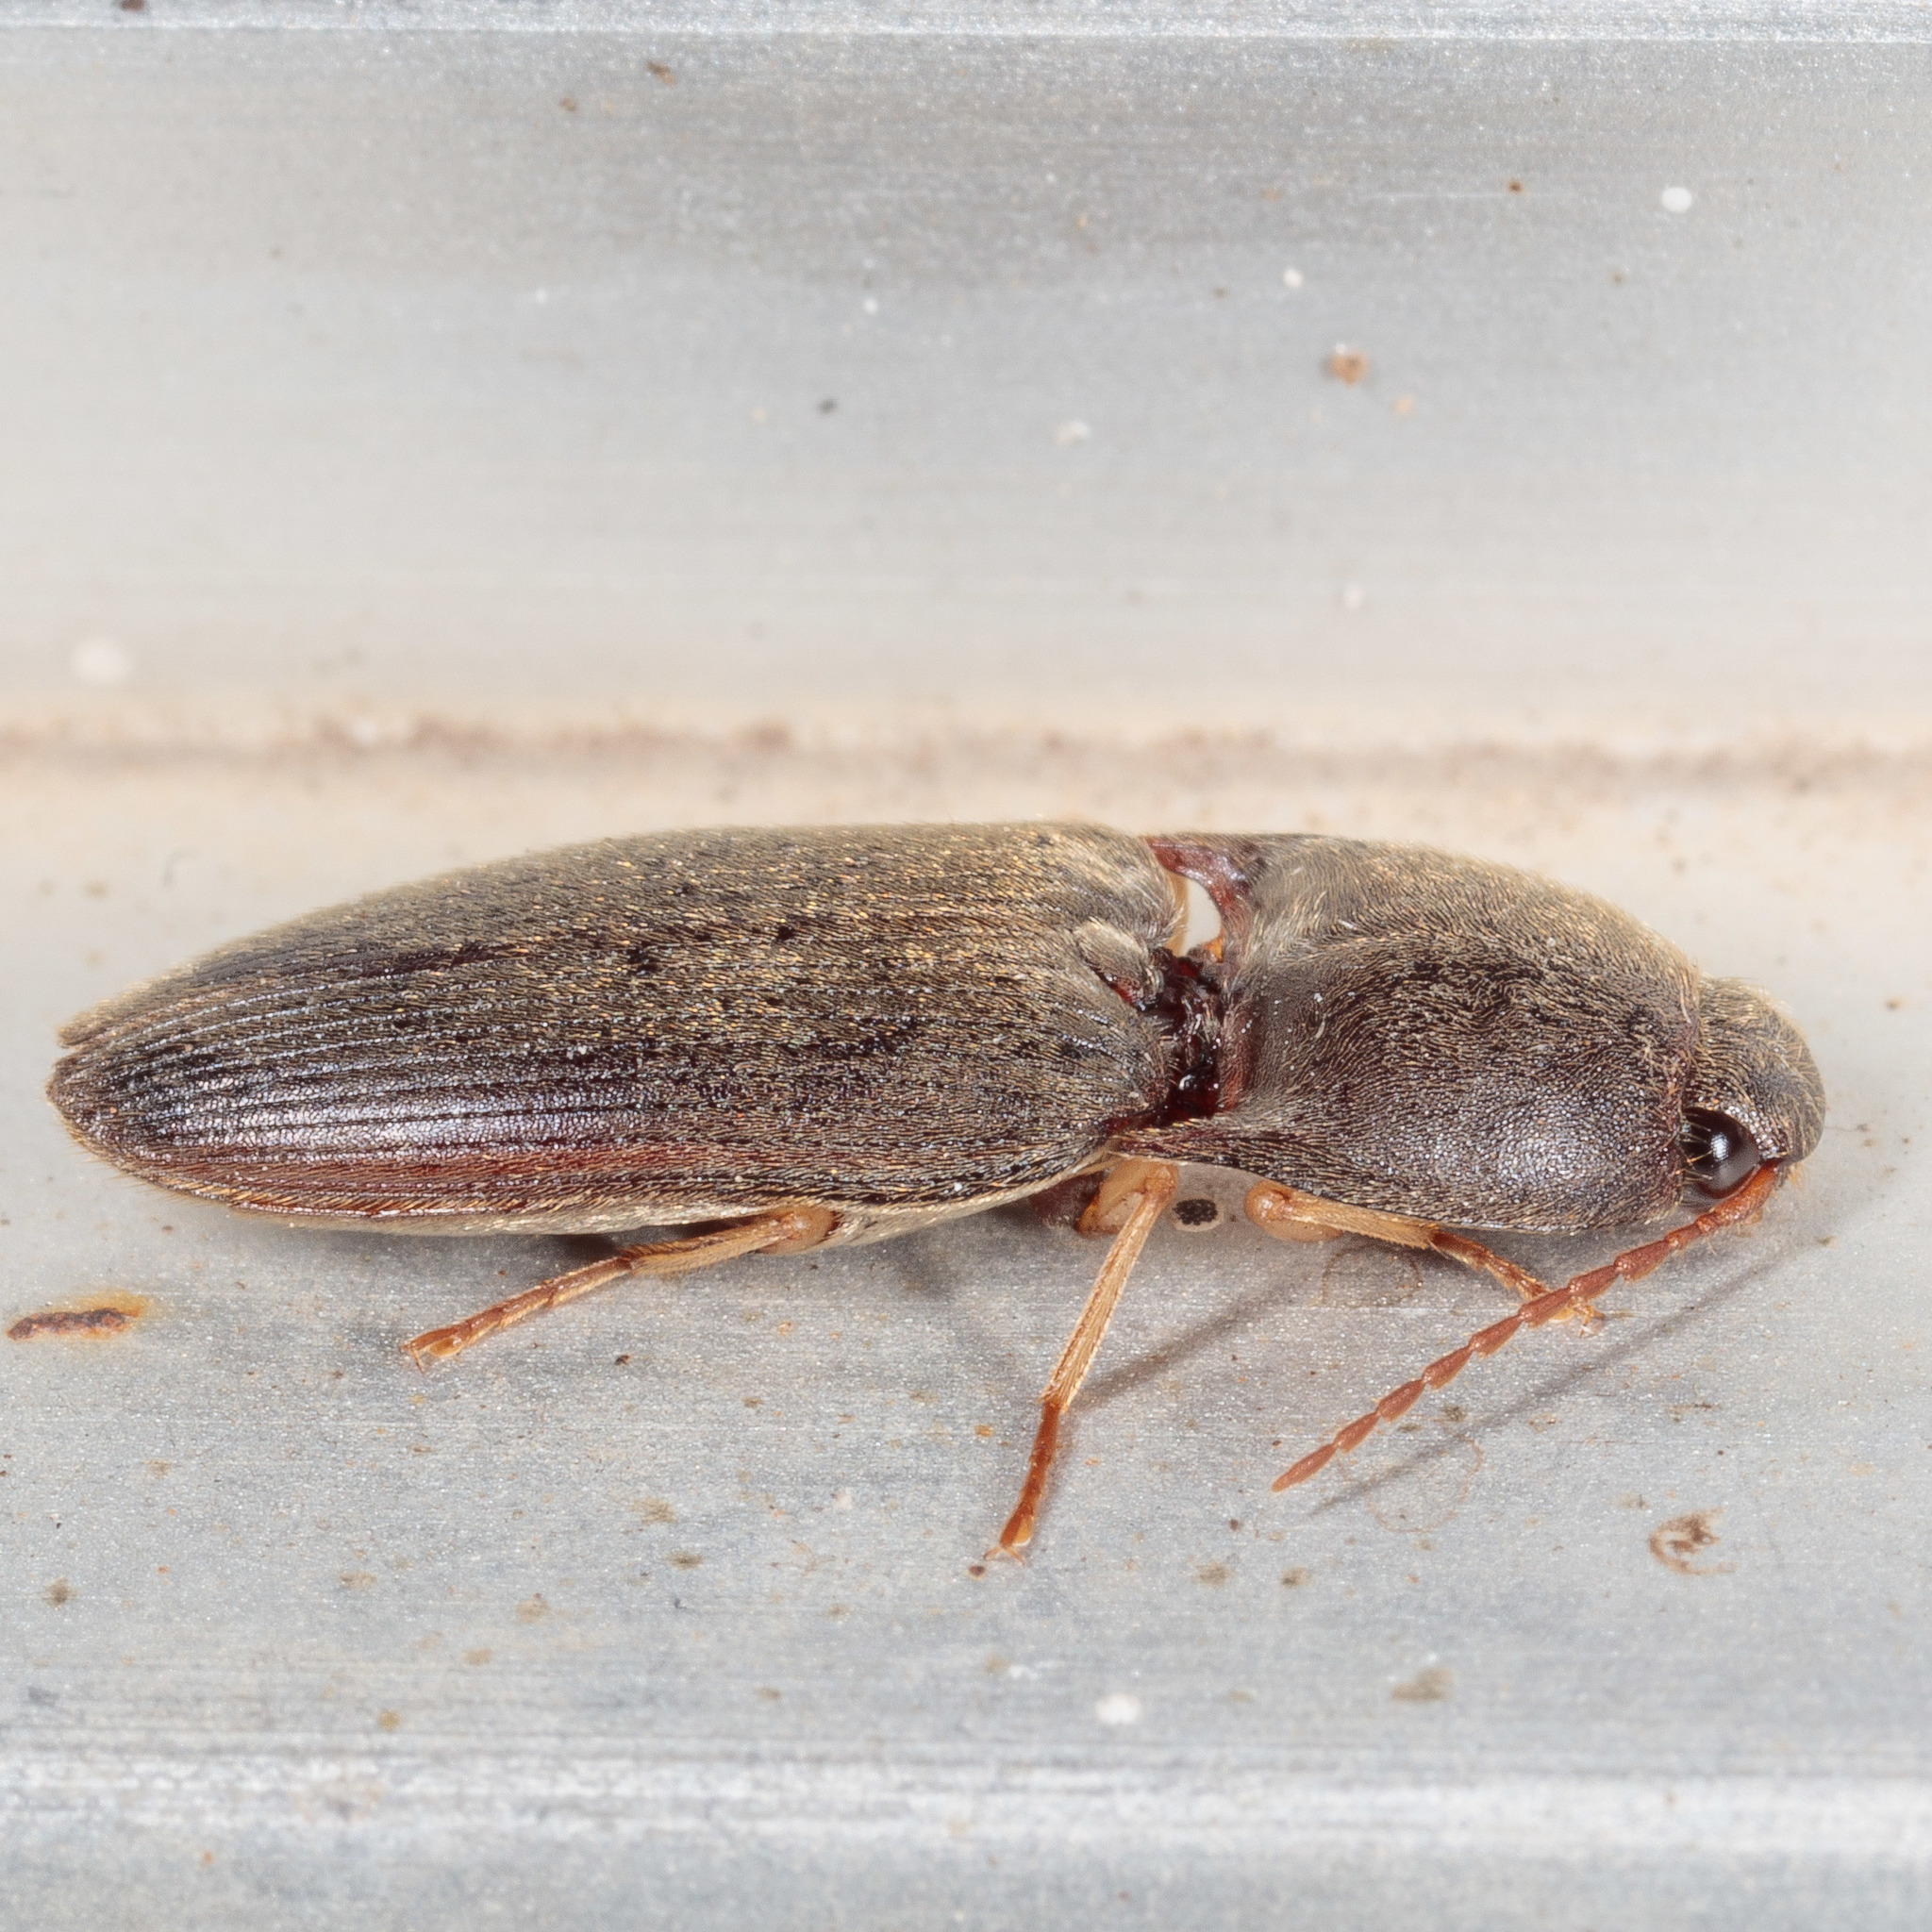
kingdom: Animalia
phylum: Arthropoda
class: Insecta
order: Coleoptera
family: Elateridae
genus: Conoderus
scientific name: Conoderus exsul
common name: Click beetle
